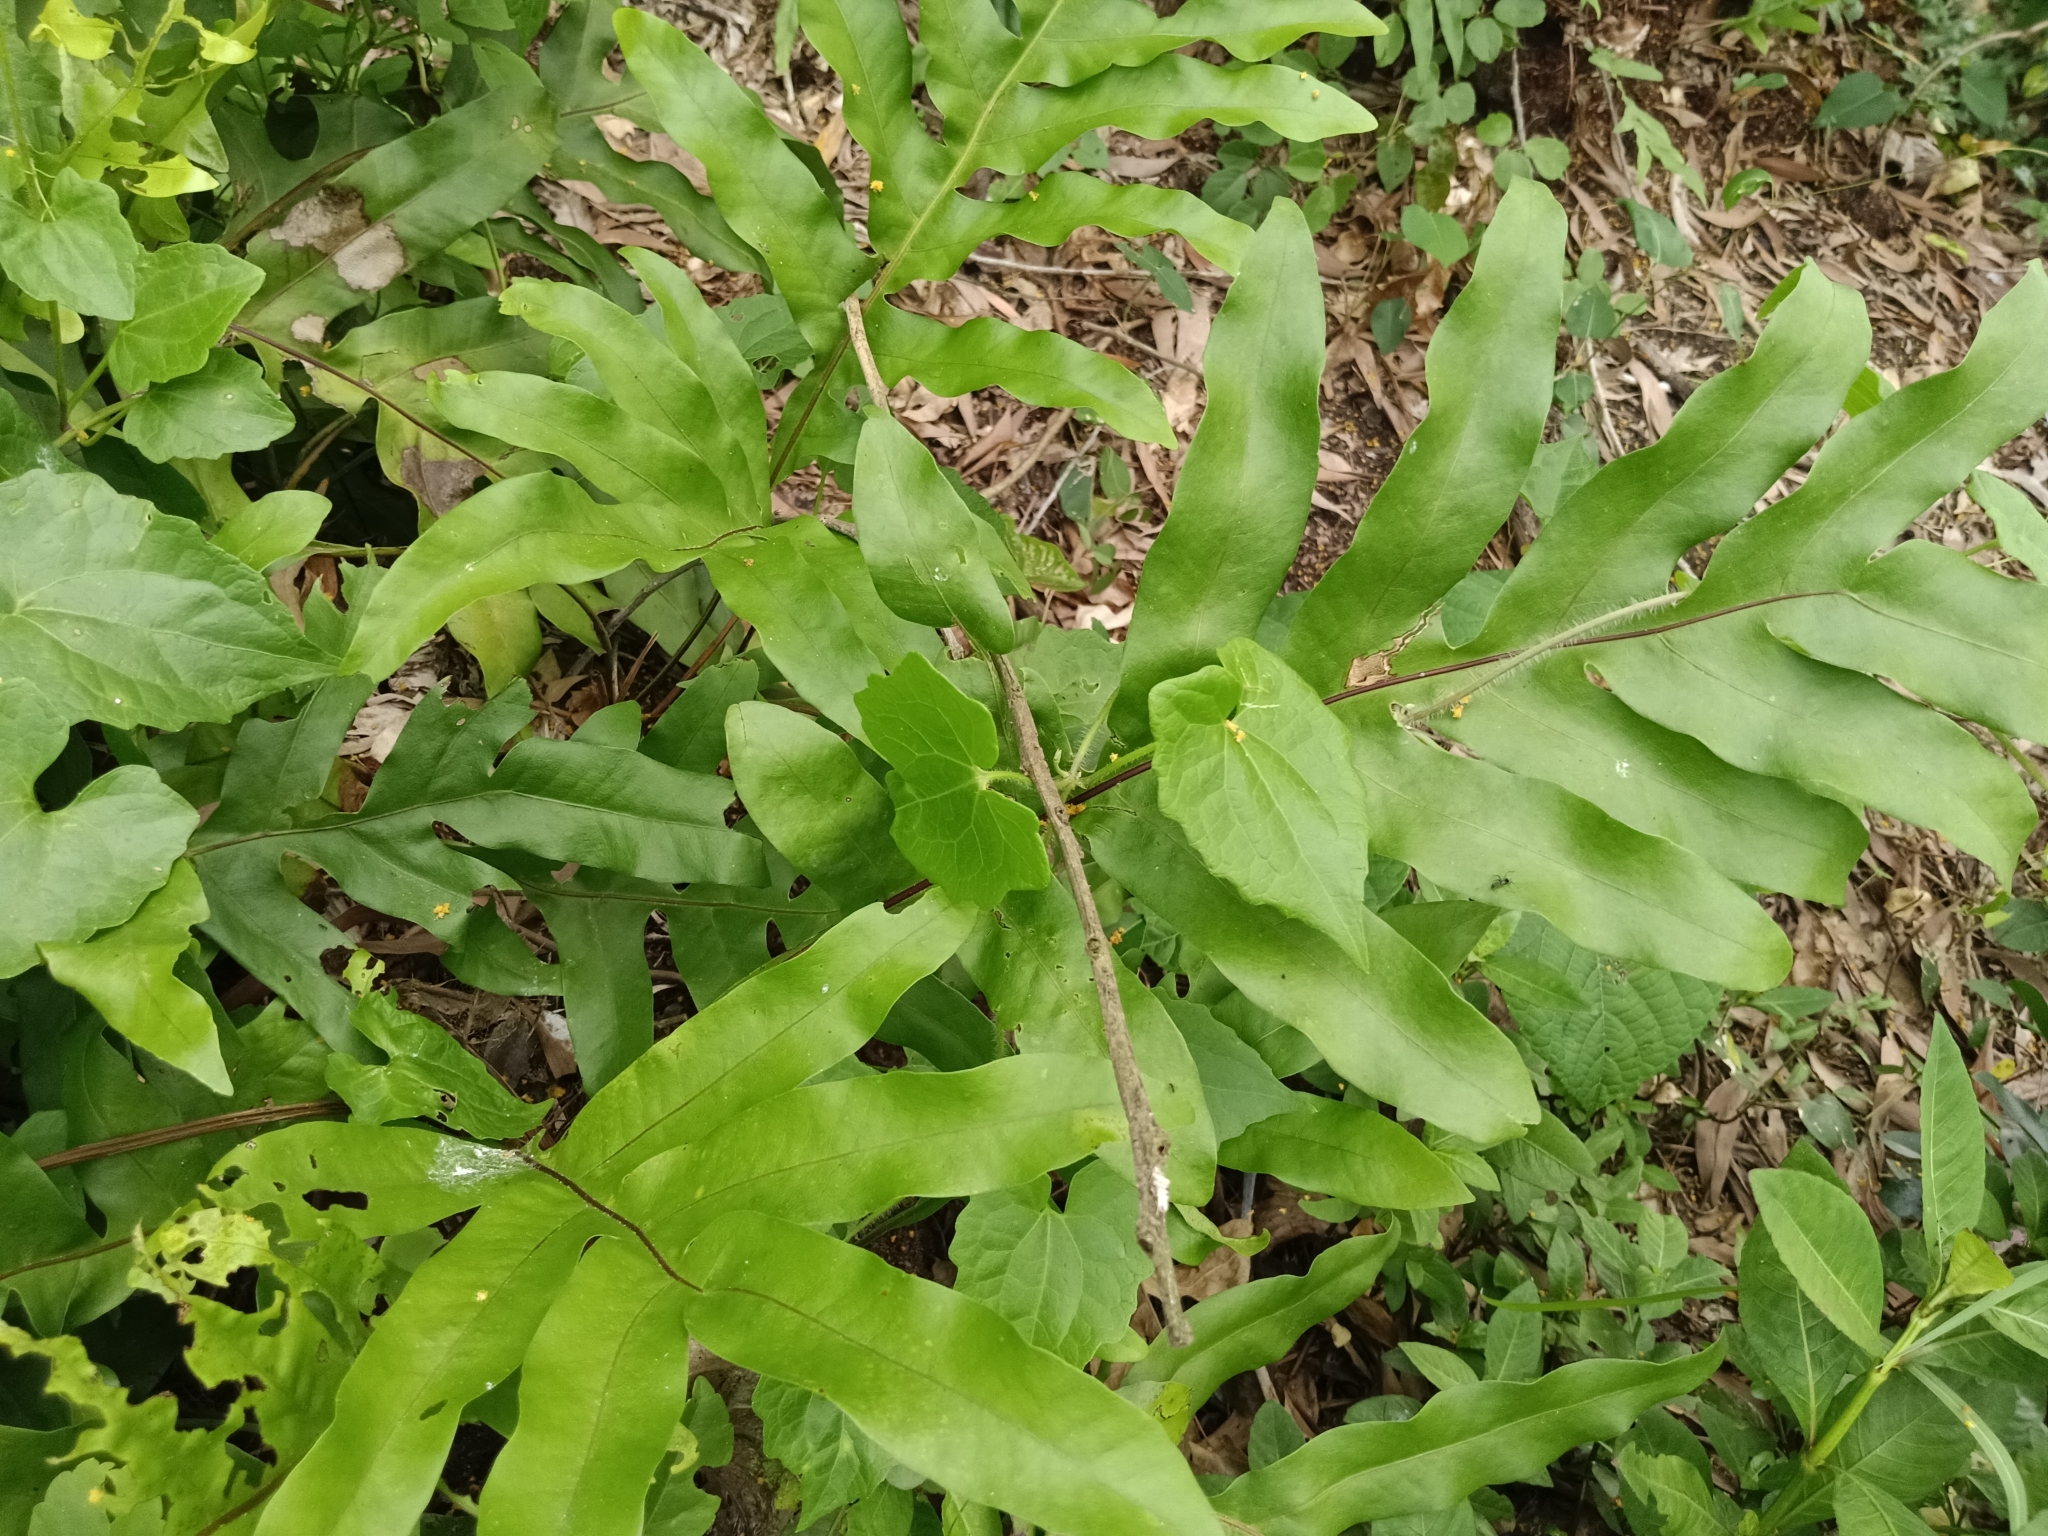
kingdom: Plantae
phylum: Tracheophyta
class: Polypodiopsida
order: Polypodiales
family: Polypodiaceae
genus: Drynaria
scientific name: Drynaria quercifolia
